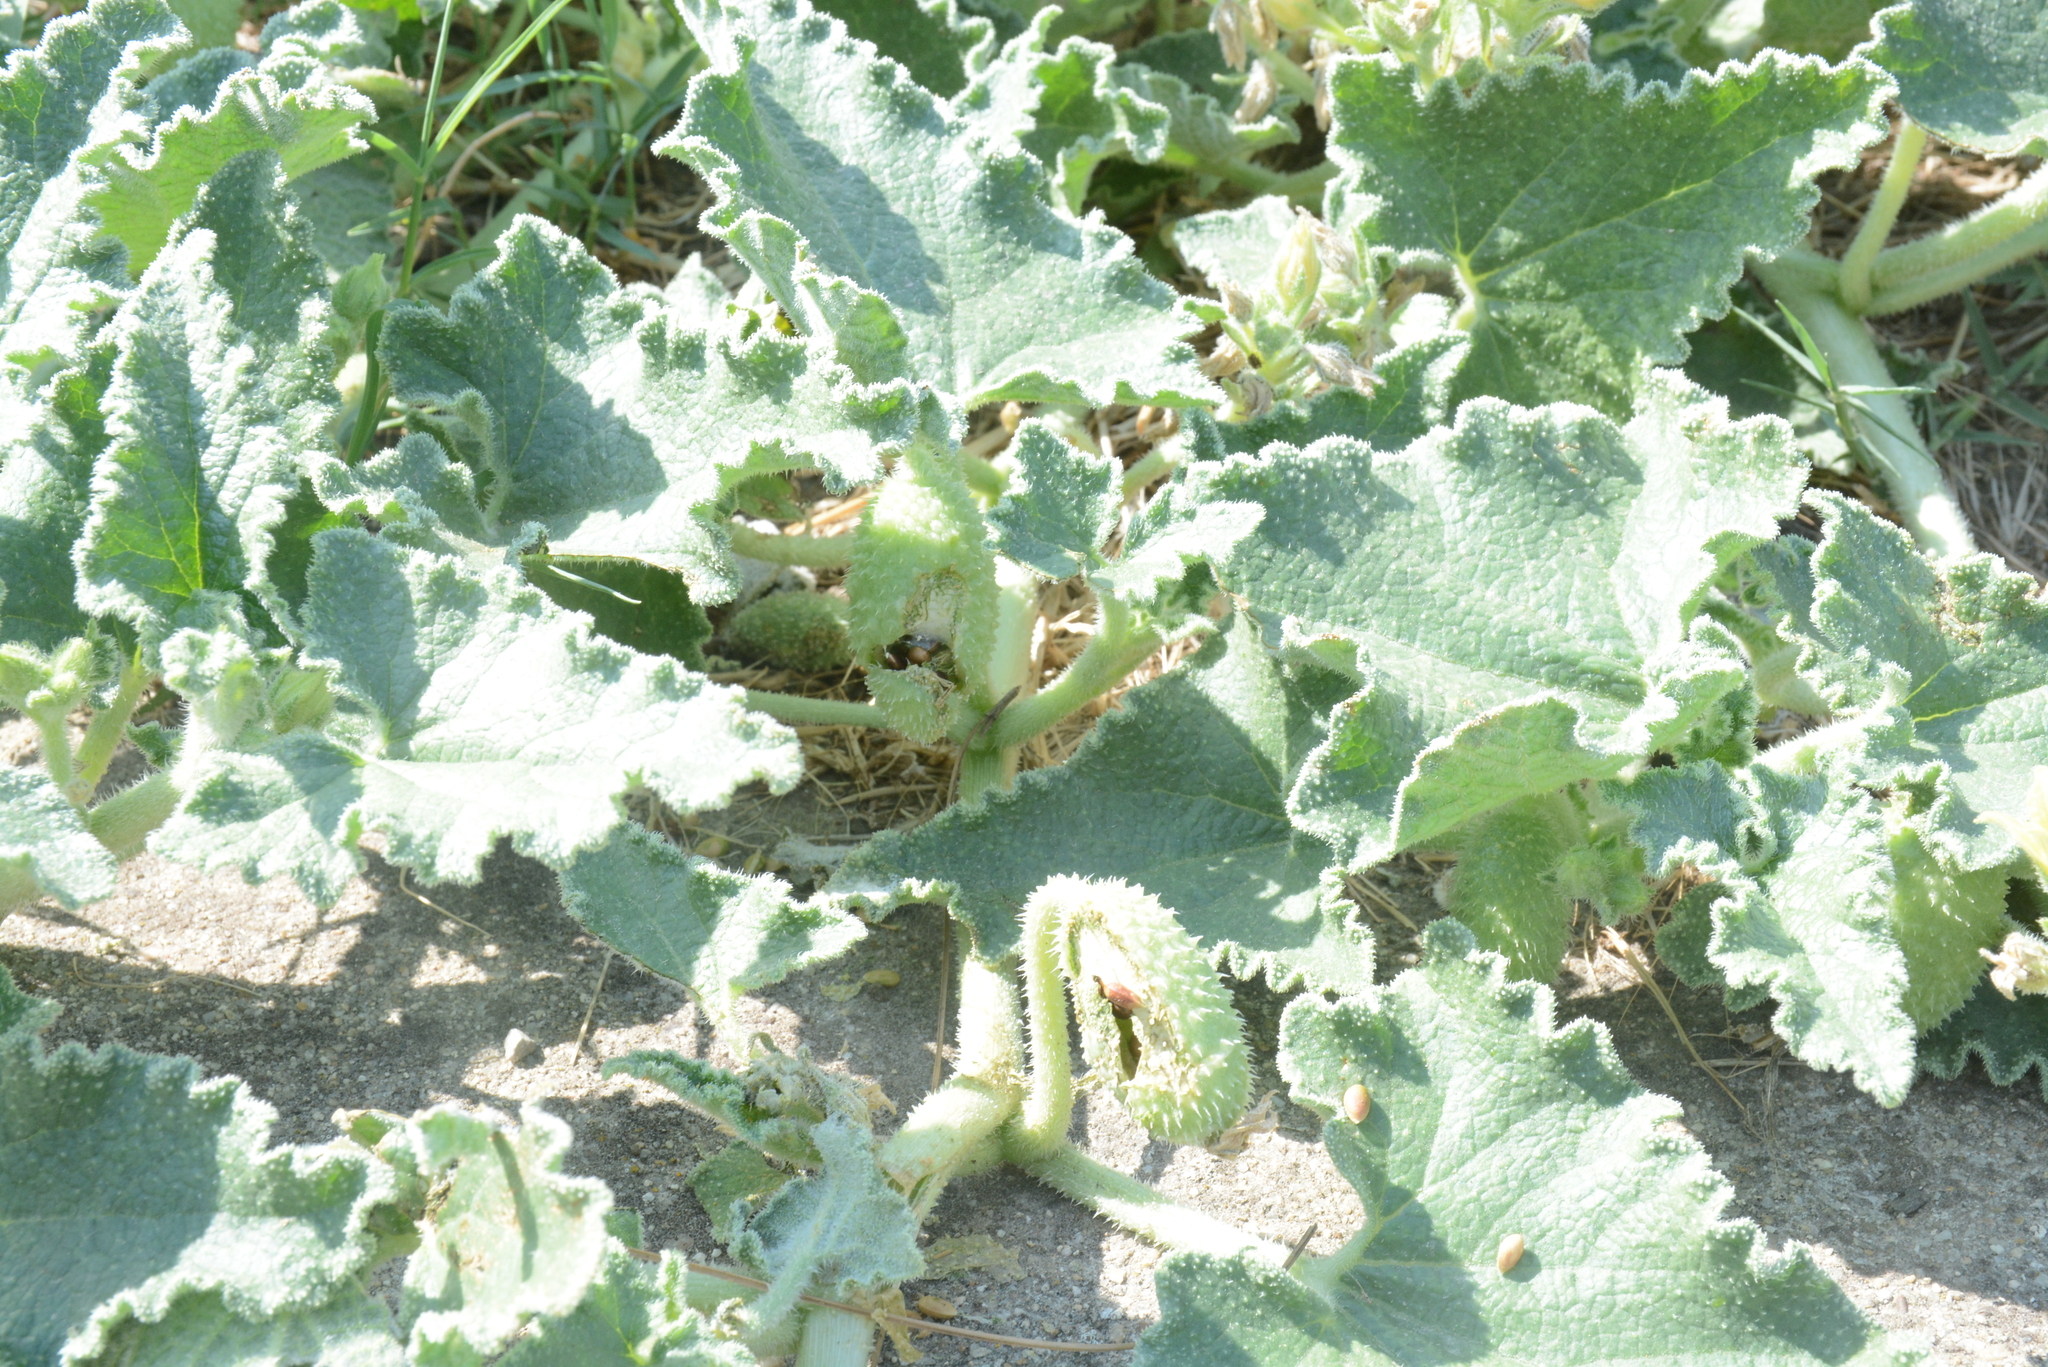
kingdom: Plantae
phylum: Tracheophyta
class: Magnoliopsida
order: Cucurbitales
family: Cucurbitaceae
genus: Ecballium
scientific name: Ecballium elaterium
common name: Squirting cucumber
